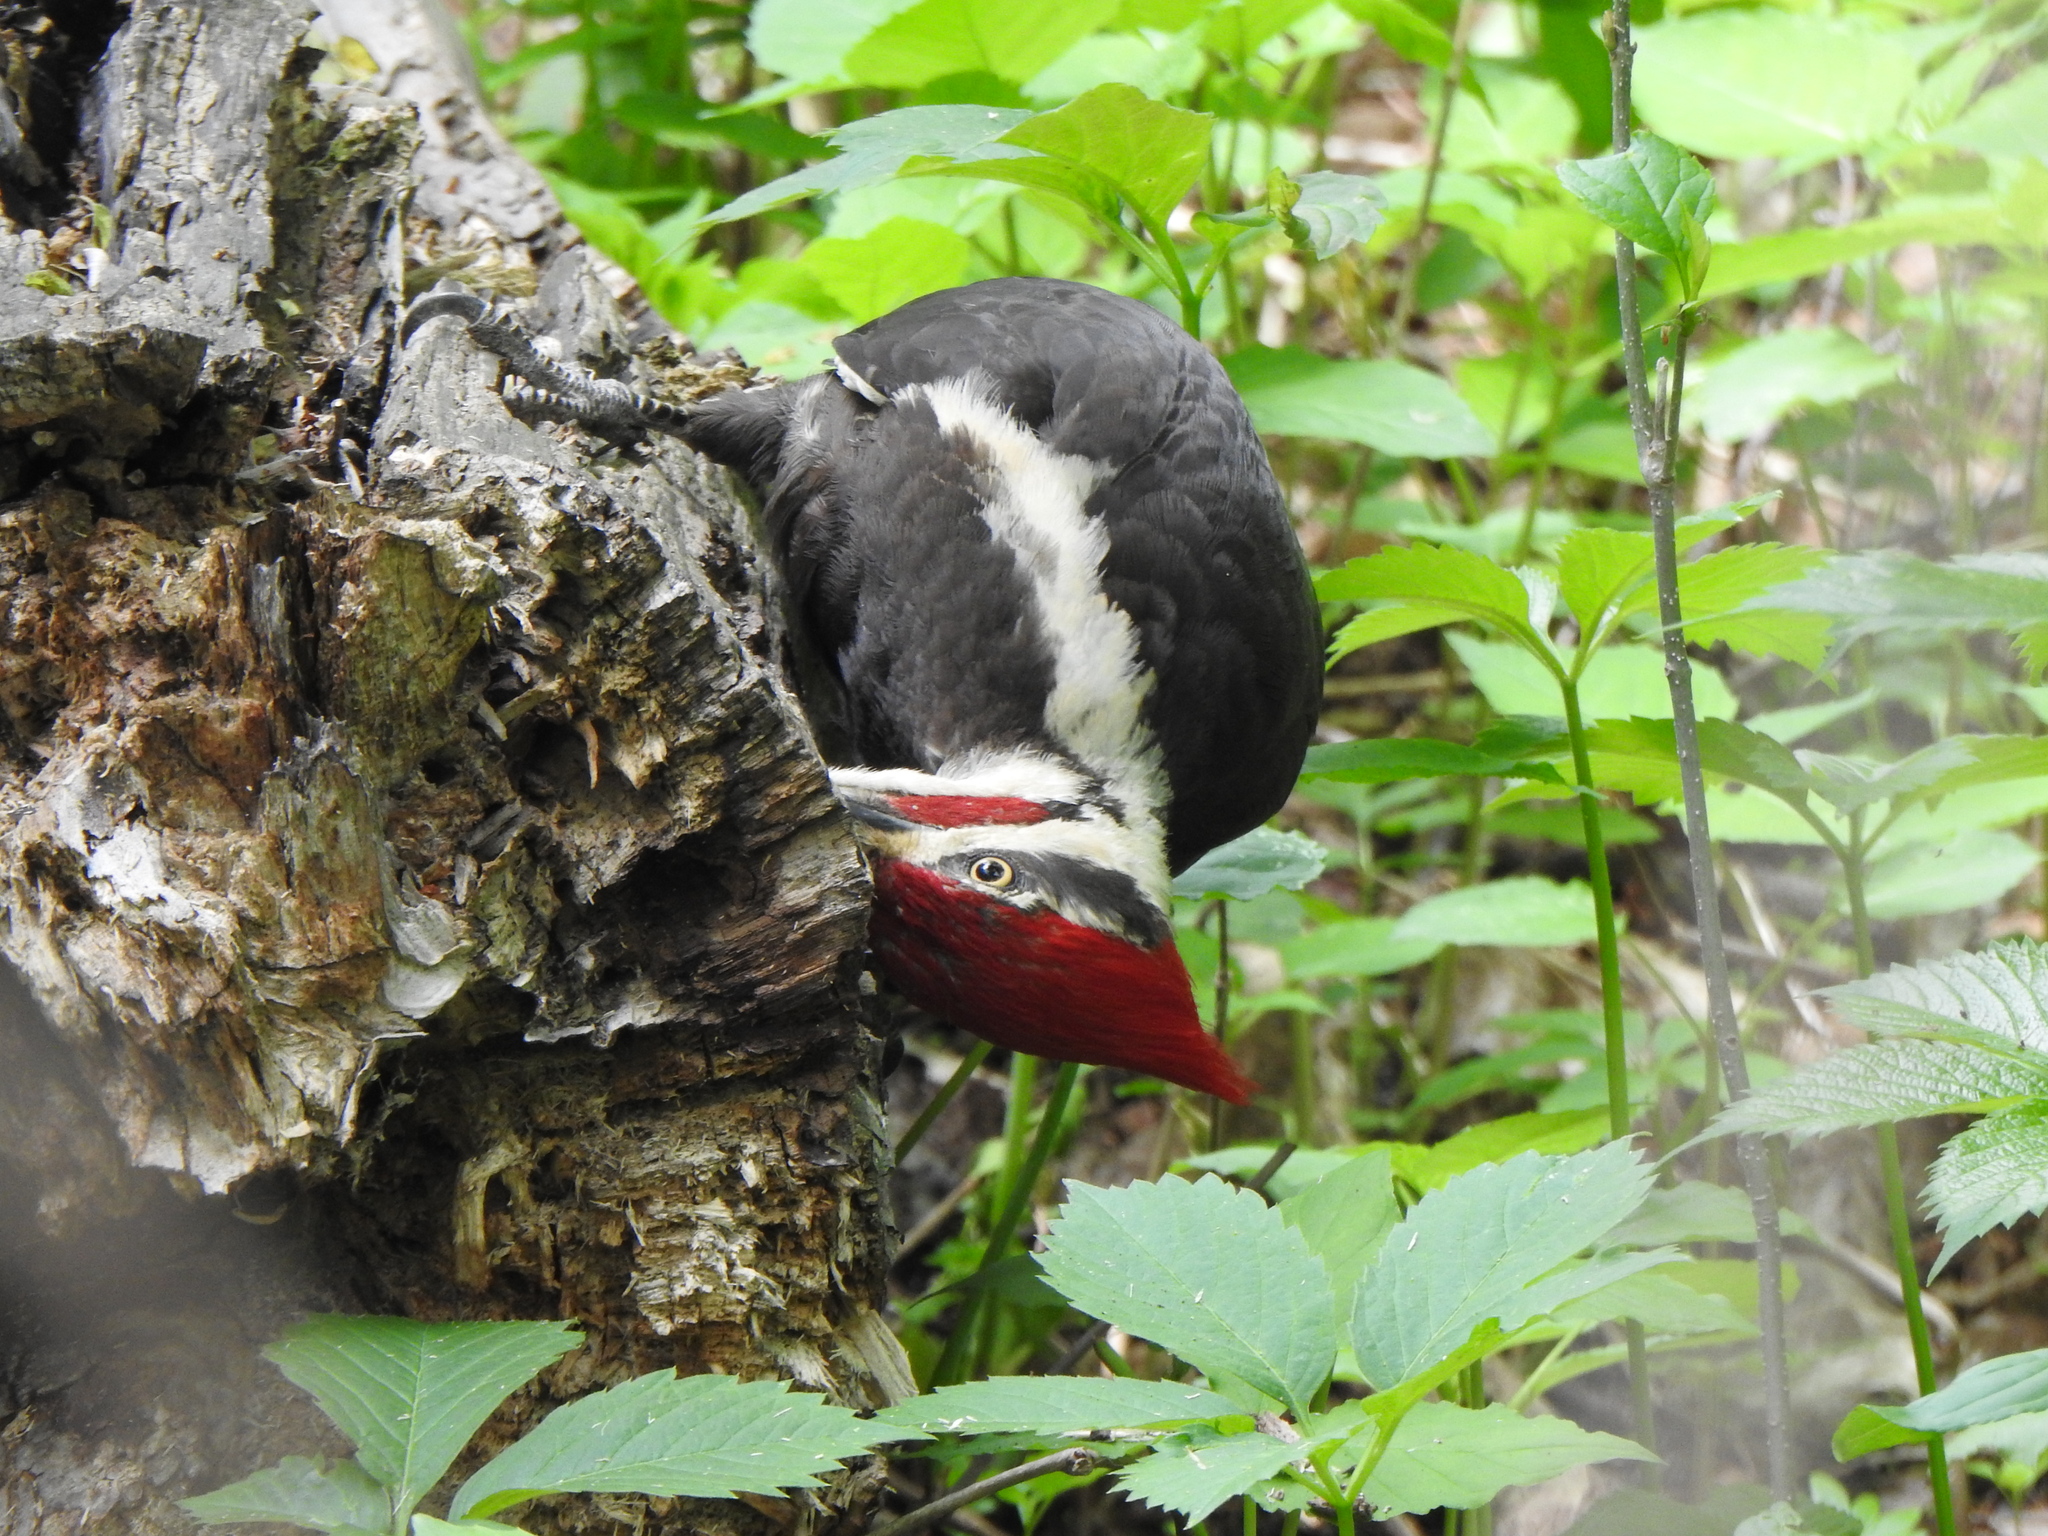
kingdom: Animalia
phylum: Chordata
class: Aves
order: Piciformes
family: Picidae
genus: Dryocopus
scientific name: Dryocopus pileatus
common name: Pileated woodpecker
